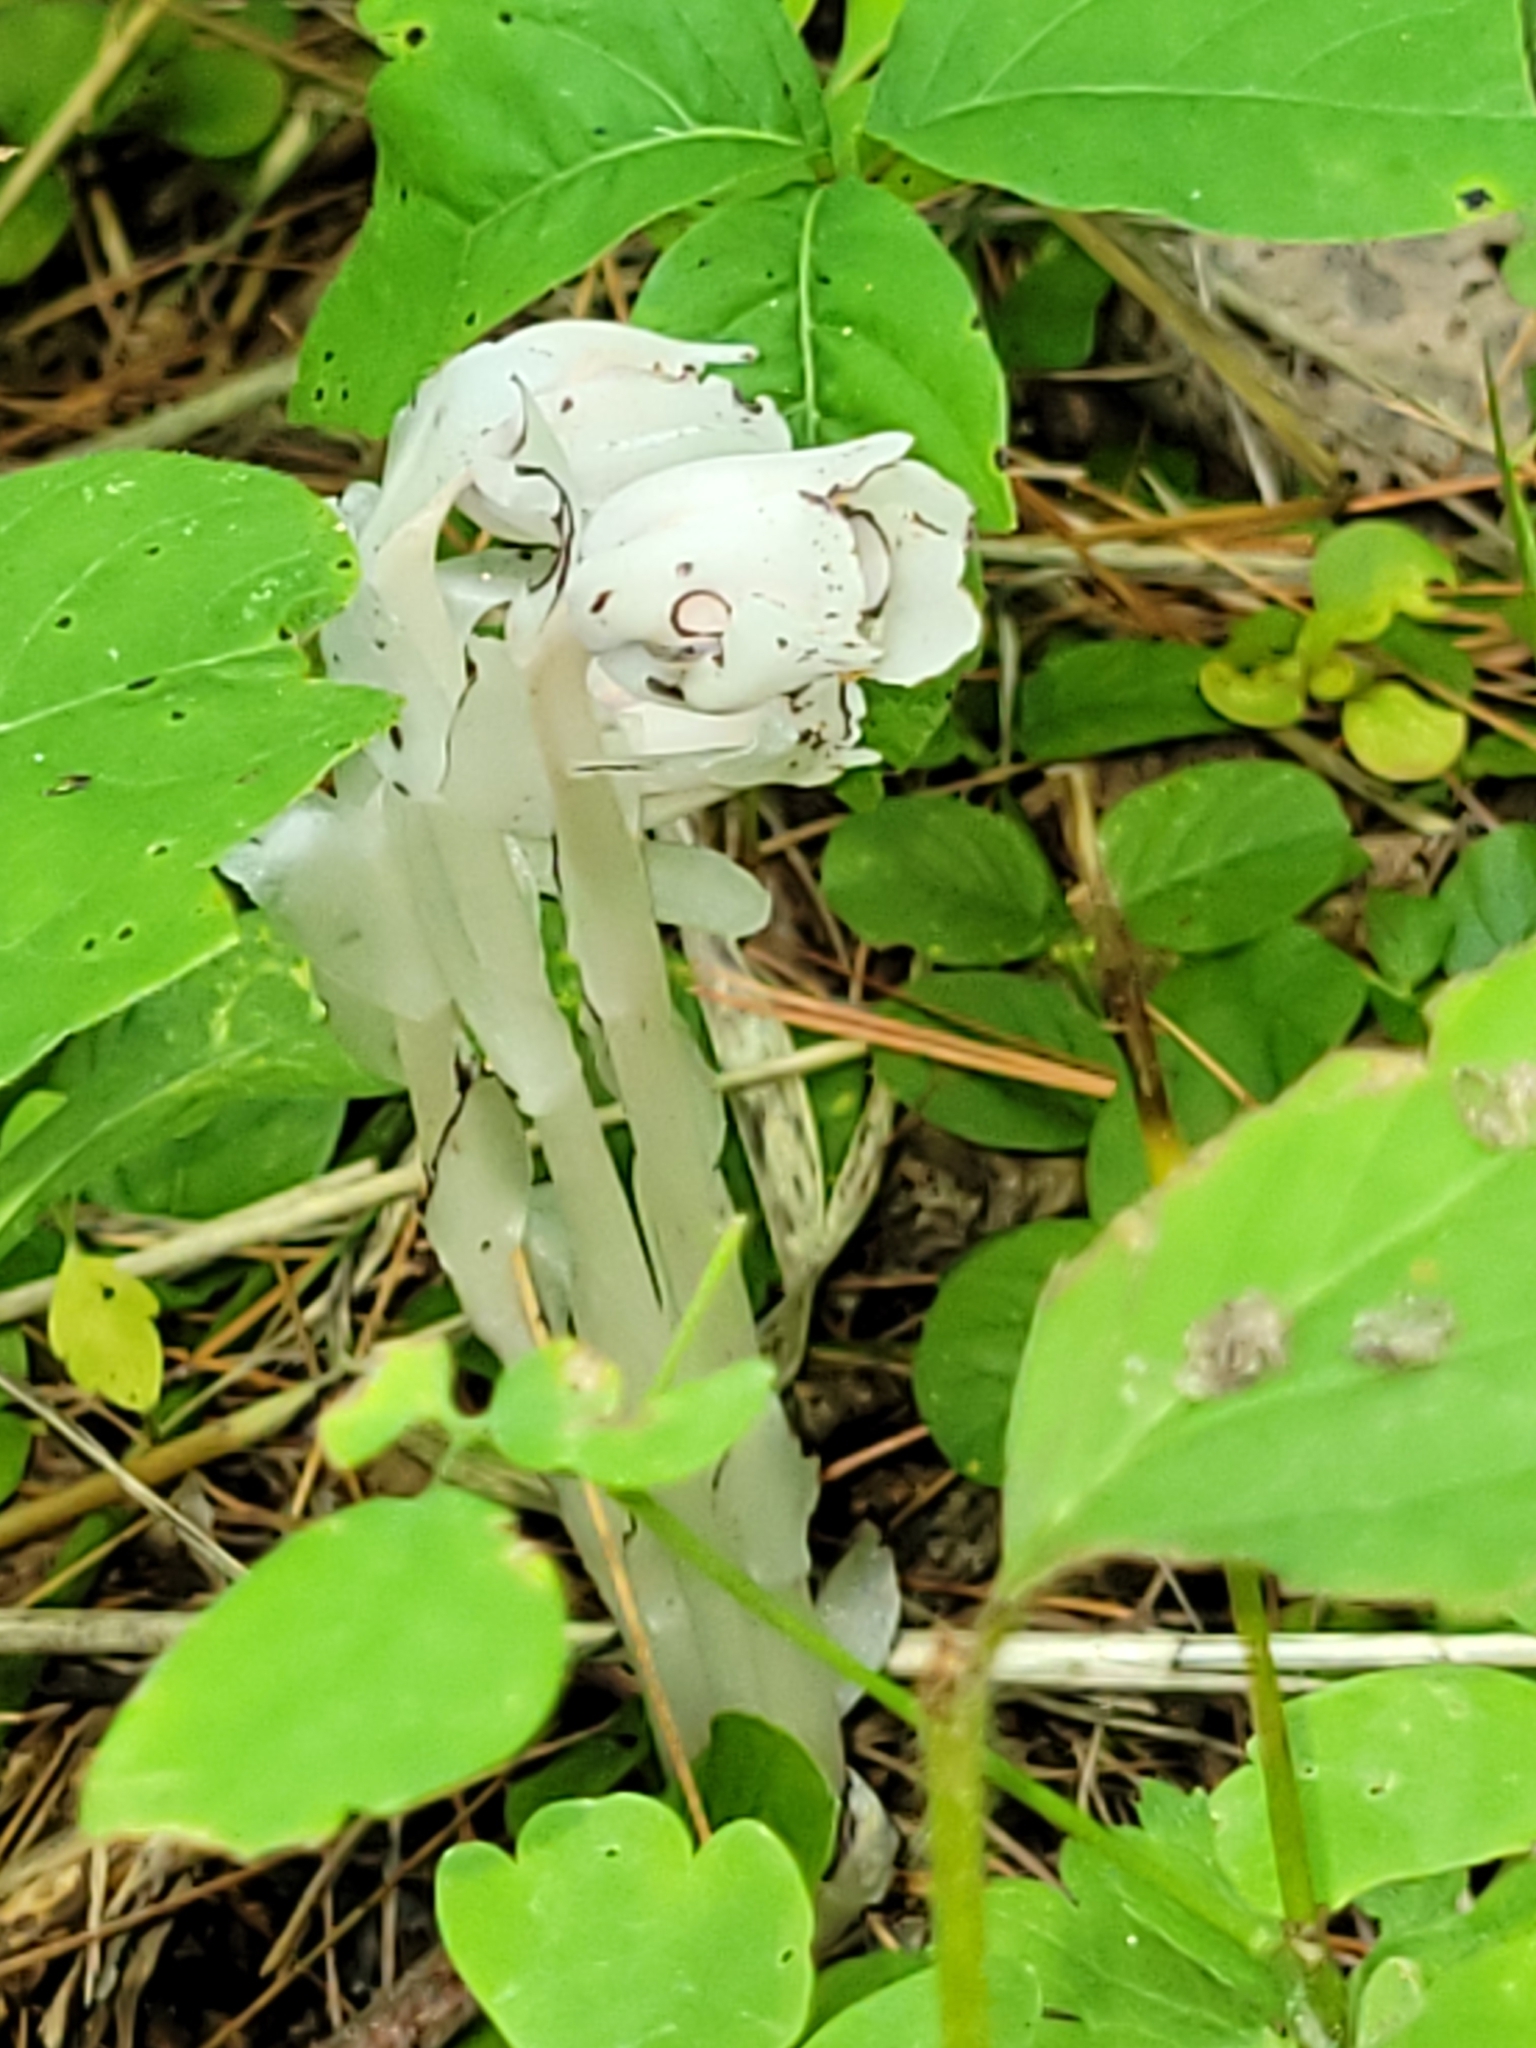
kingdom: Plantae
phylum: Tracheophyta
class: Magnoliopsida
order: Ericales
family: Ericaceae
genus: Monotropa
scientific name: Monotropa uniflora
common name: Convulsion root
